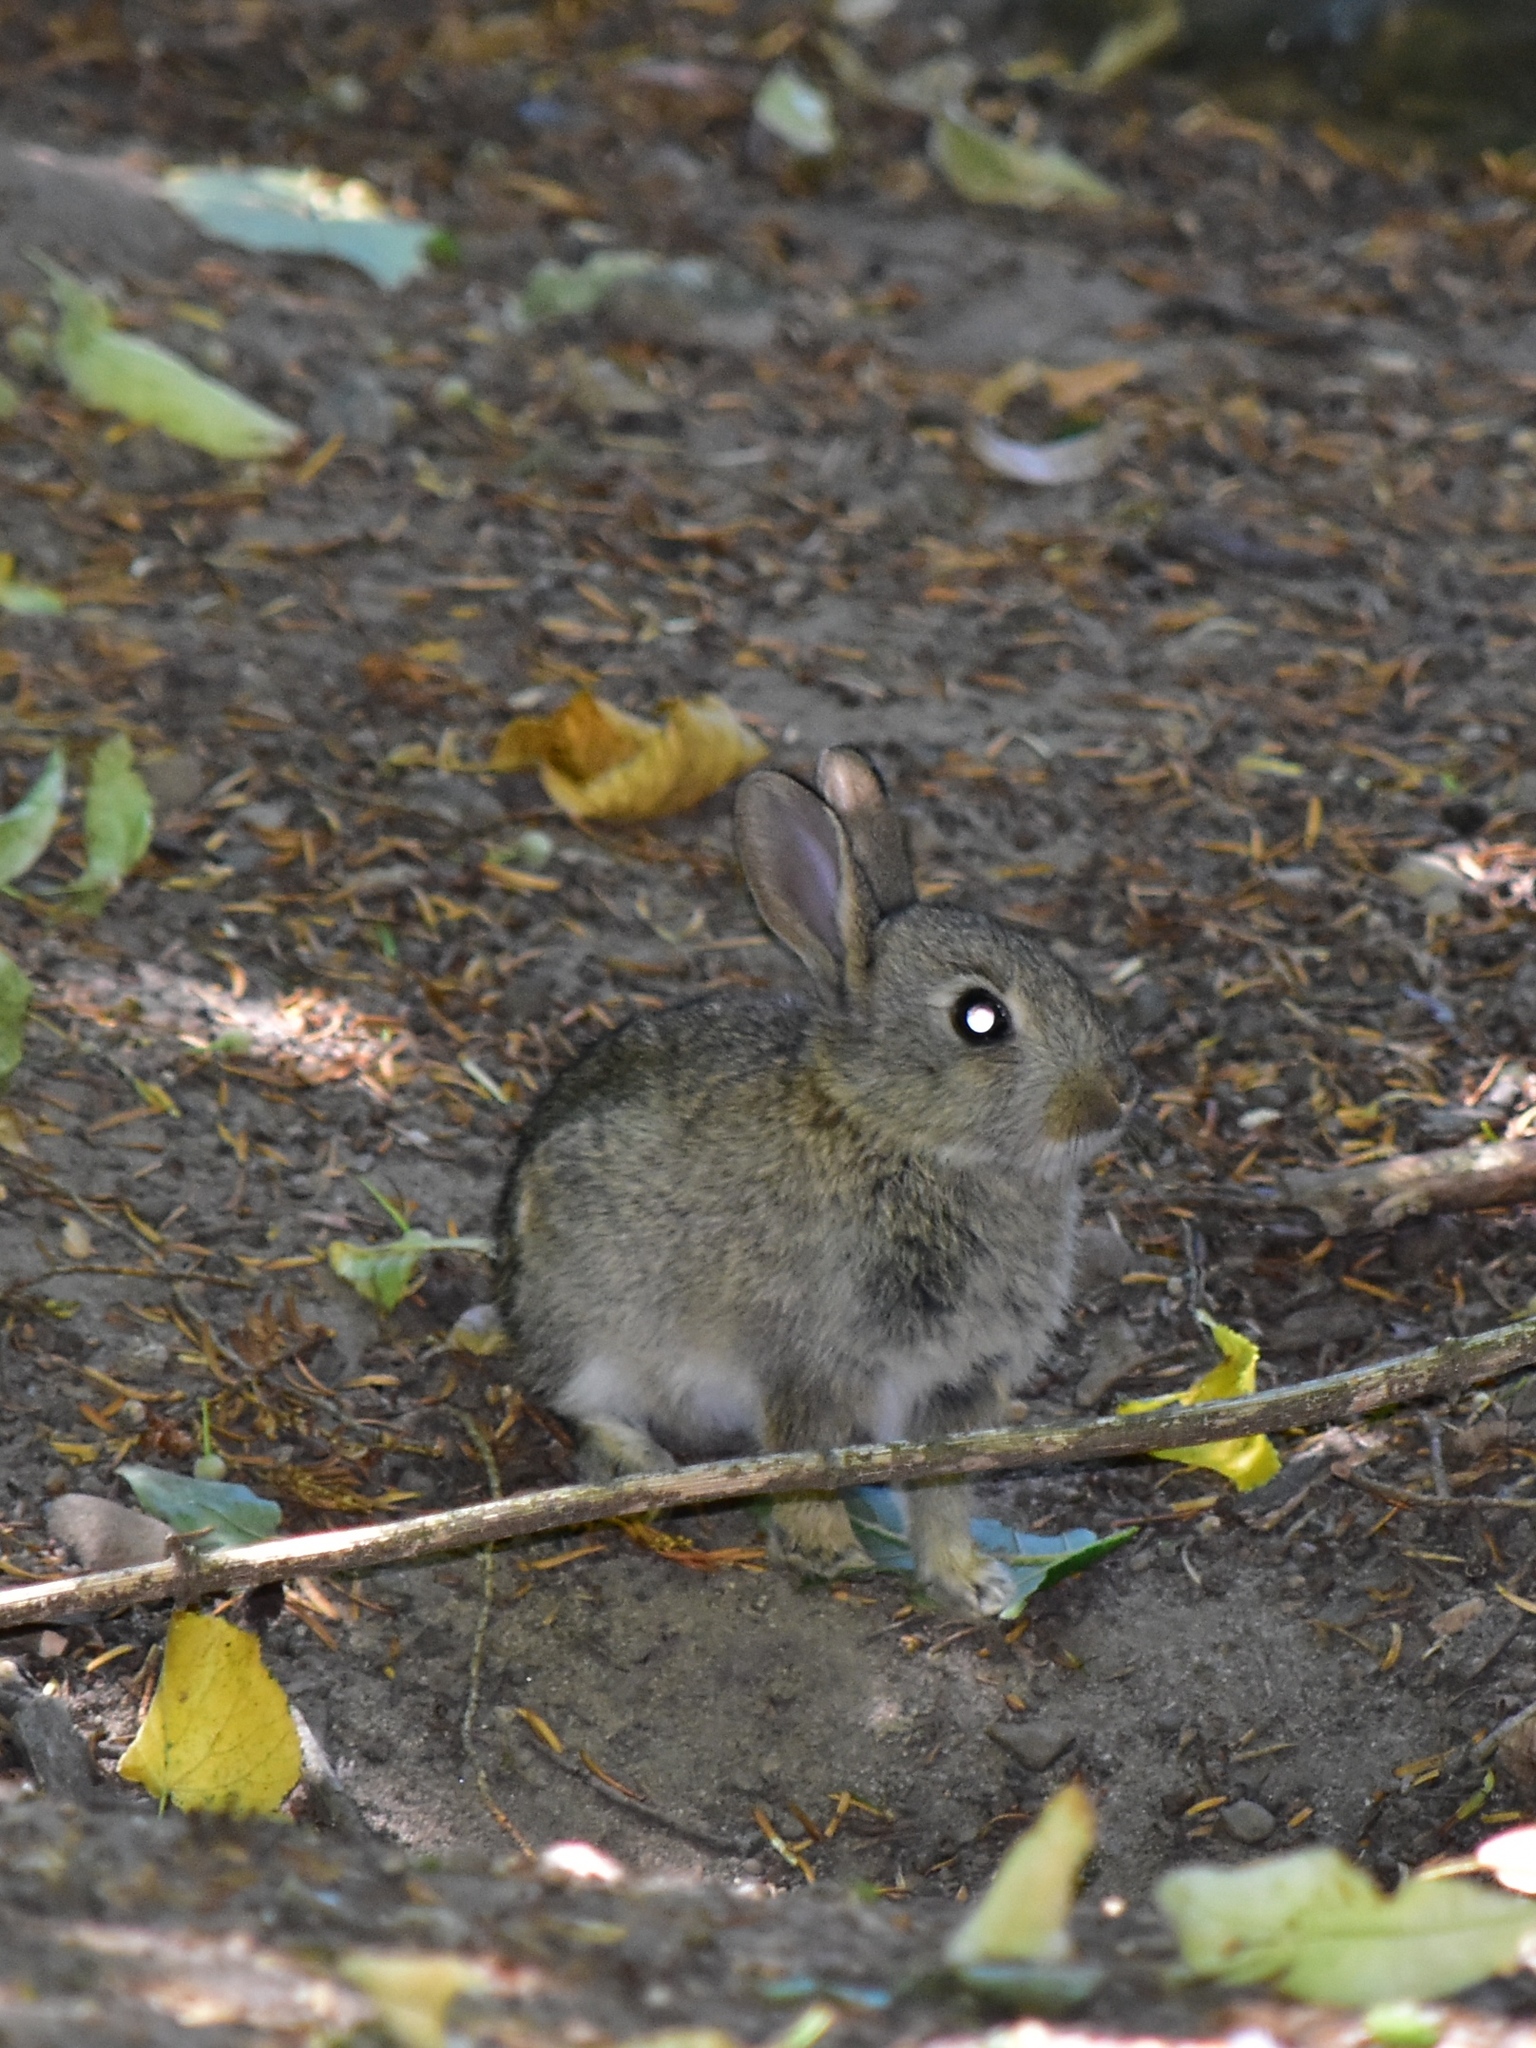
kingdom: Animalia
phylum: Chordata
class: Mammalia
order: Lagomorpha
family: Leporidae
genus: Oryctolagus
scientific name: Oryctolagus cuniculus
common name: European rabbit
